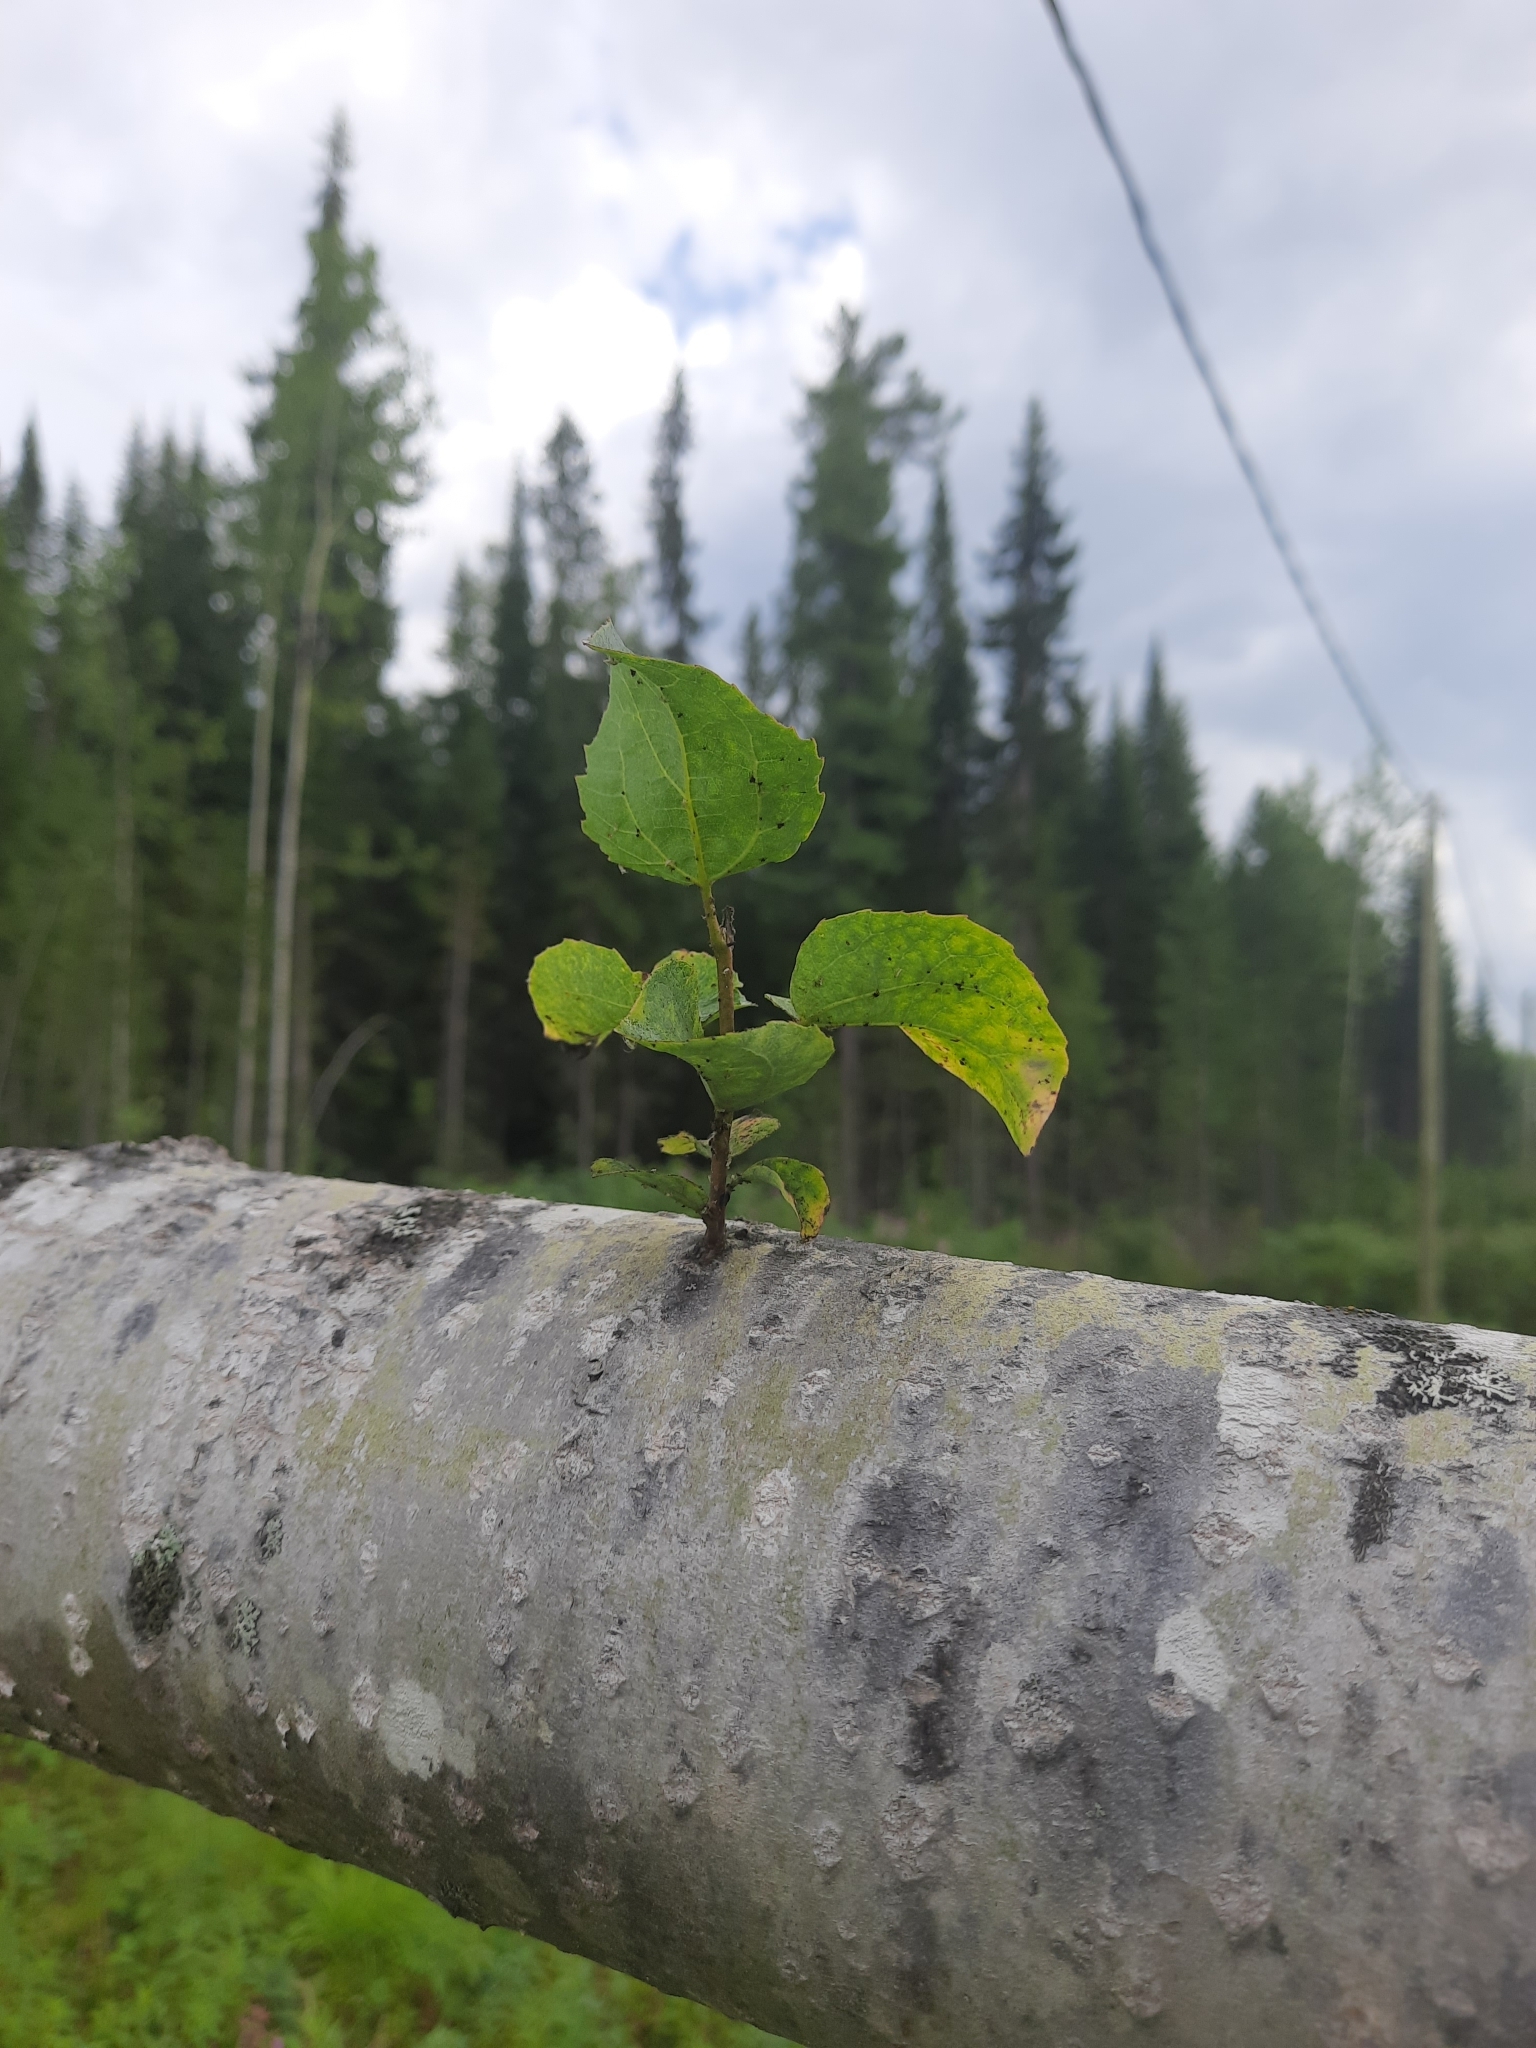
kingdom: Plantae
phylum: Tracheophyta
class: Magnoliopsida
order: Malpighiales
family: Salicaceae
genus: Populus
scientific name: Populus tremula
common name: European aspen
